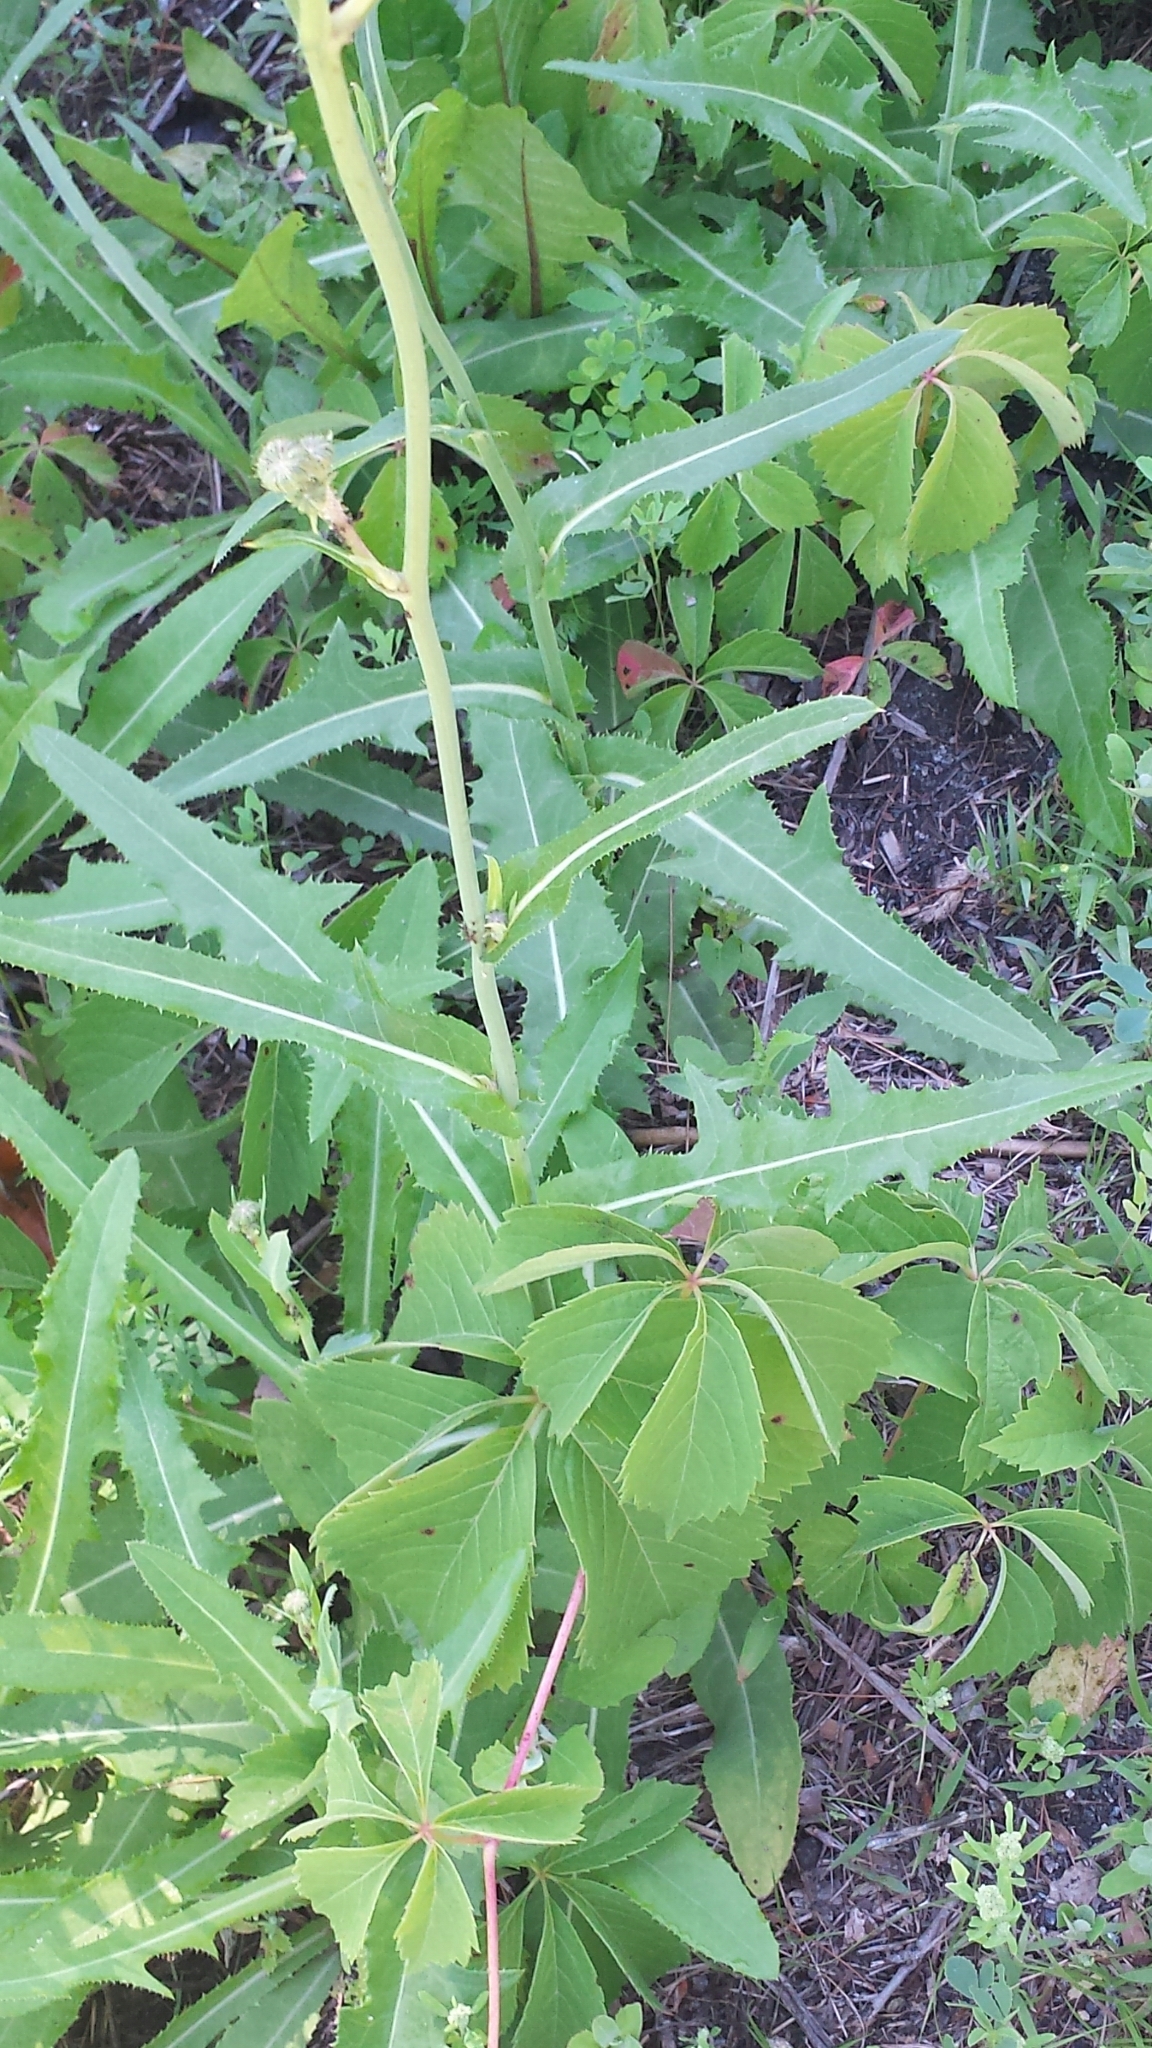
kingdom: Plantae
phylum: Tracheophyta
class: Magnoliopsida
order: Asterales
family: Asteraceae
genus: Sonchus
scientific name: Sonchus arvensis
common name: Perennial sow-thistle
